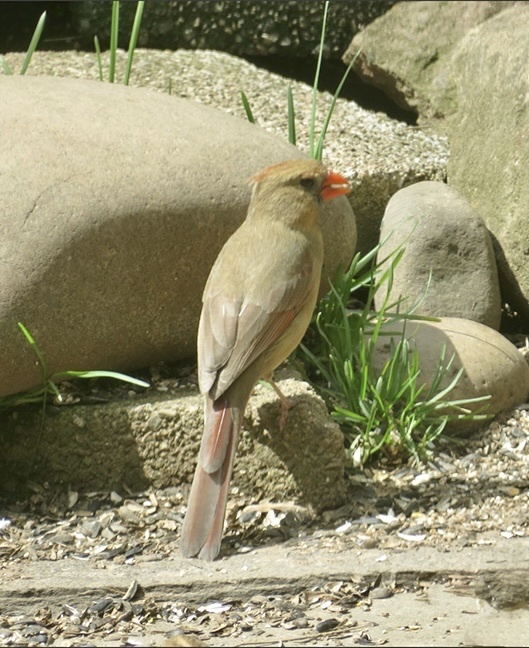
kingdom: Animalia
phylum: Chordata
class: Aves
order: Passeriformes
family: Cardinalidae
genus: Cardinalis
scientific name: Cardinalis cardinalis
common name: Northern cardinal
